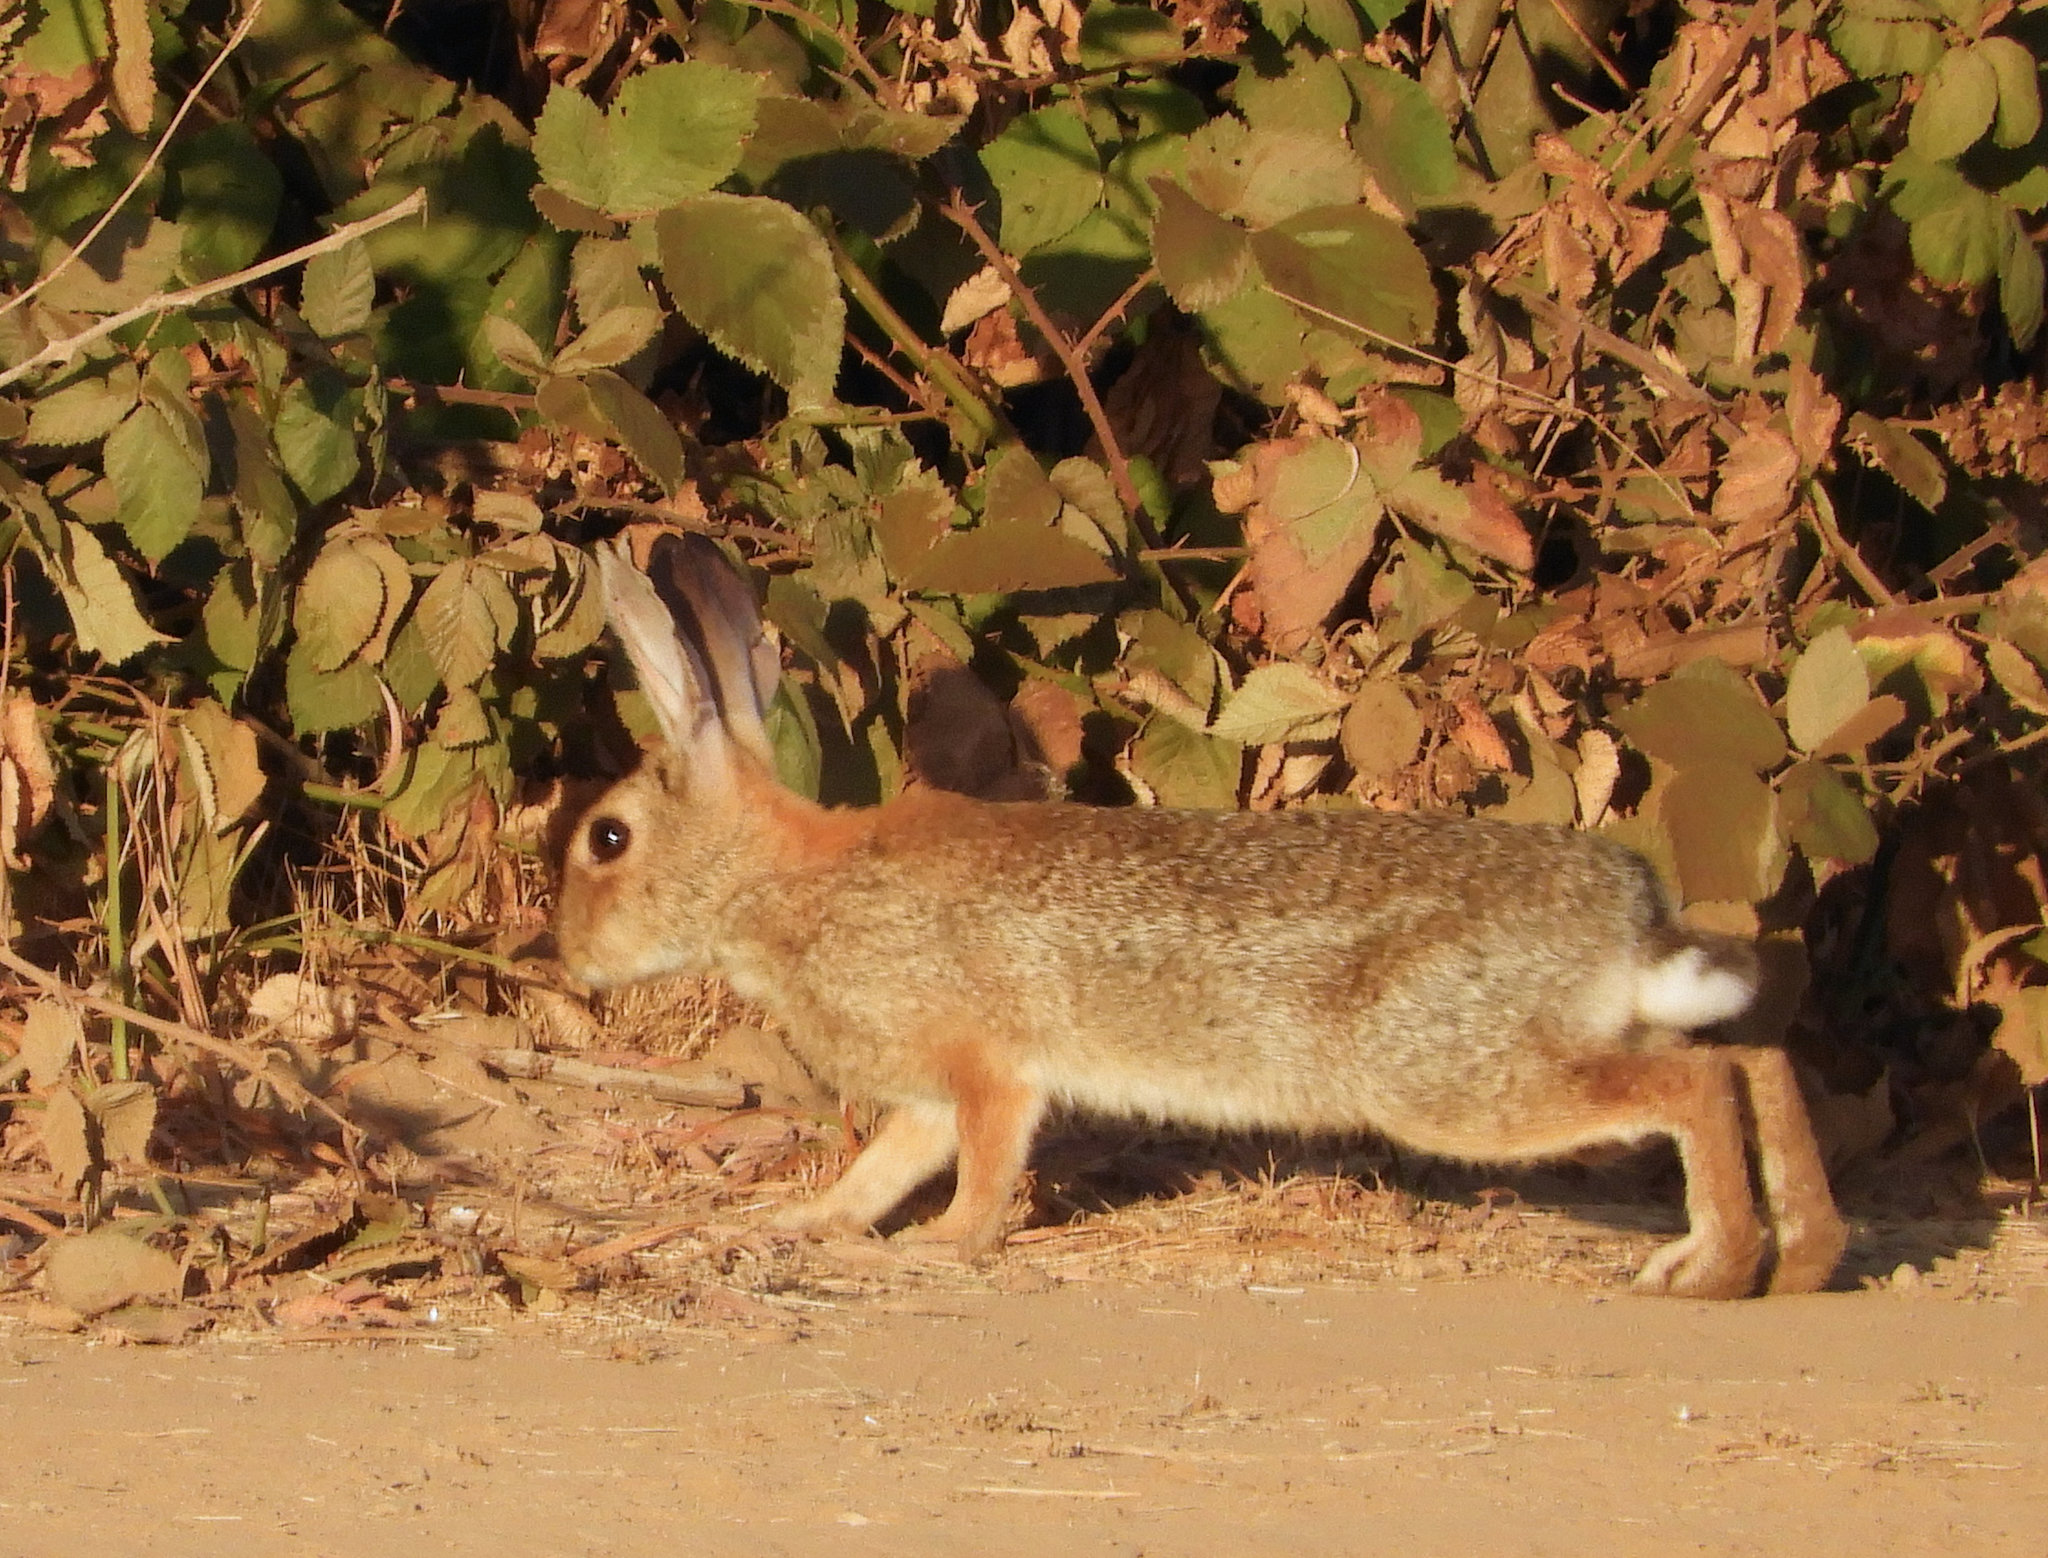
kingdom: Animalia
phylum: Chordata
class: Mammalia
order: Lagomorpha
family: Leporidae
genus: Sylvilagus
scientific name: Sylvilagus audubonii
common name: Desert cottontail
